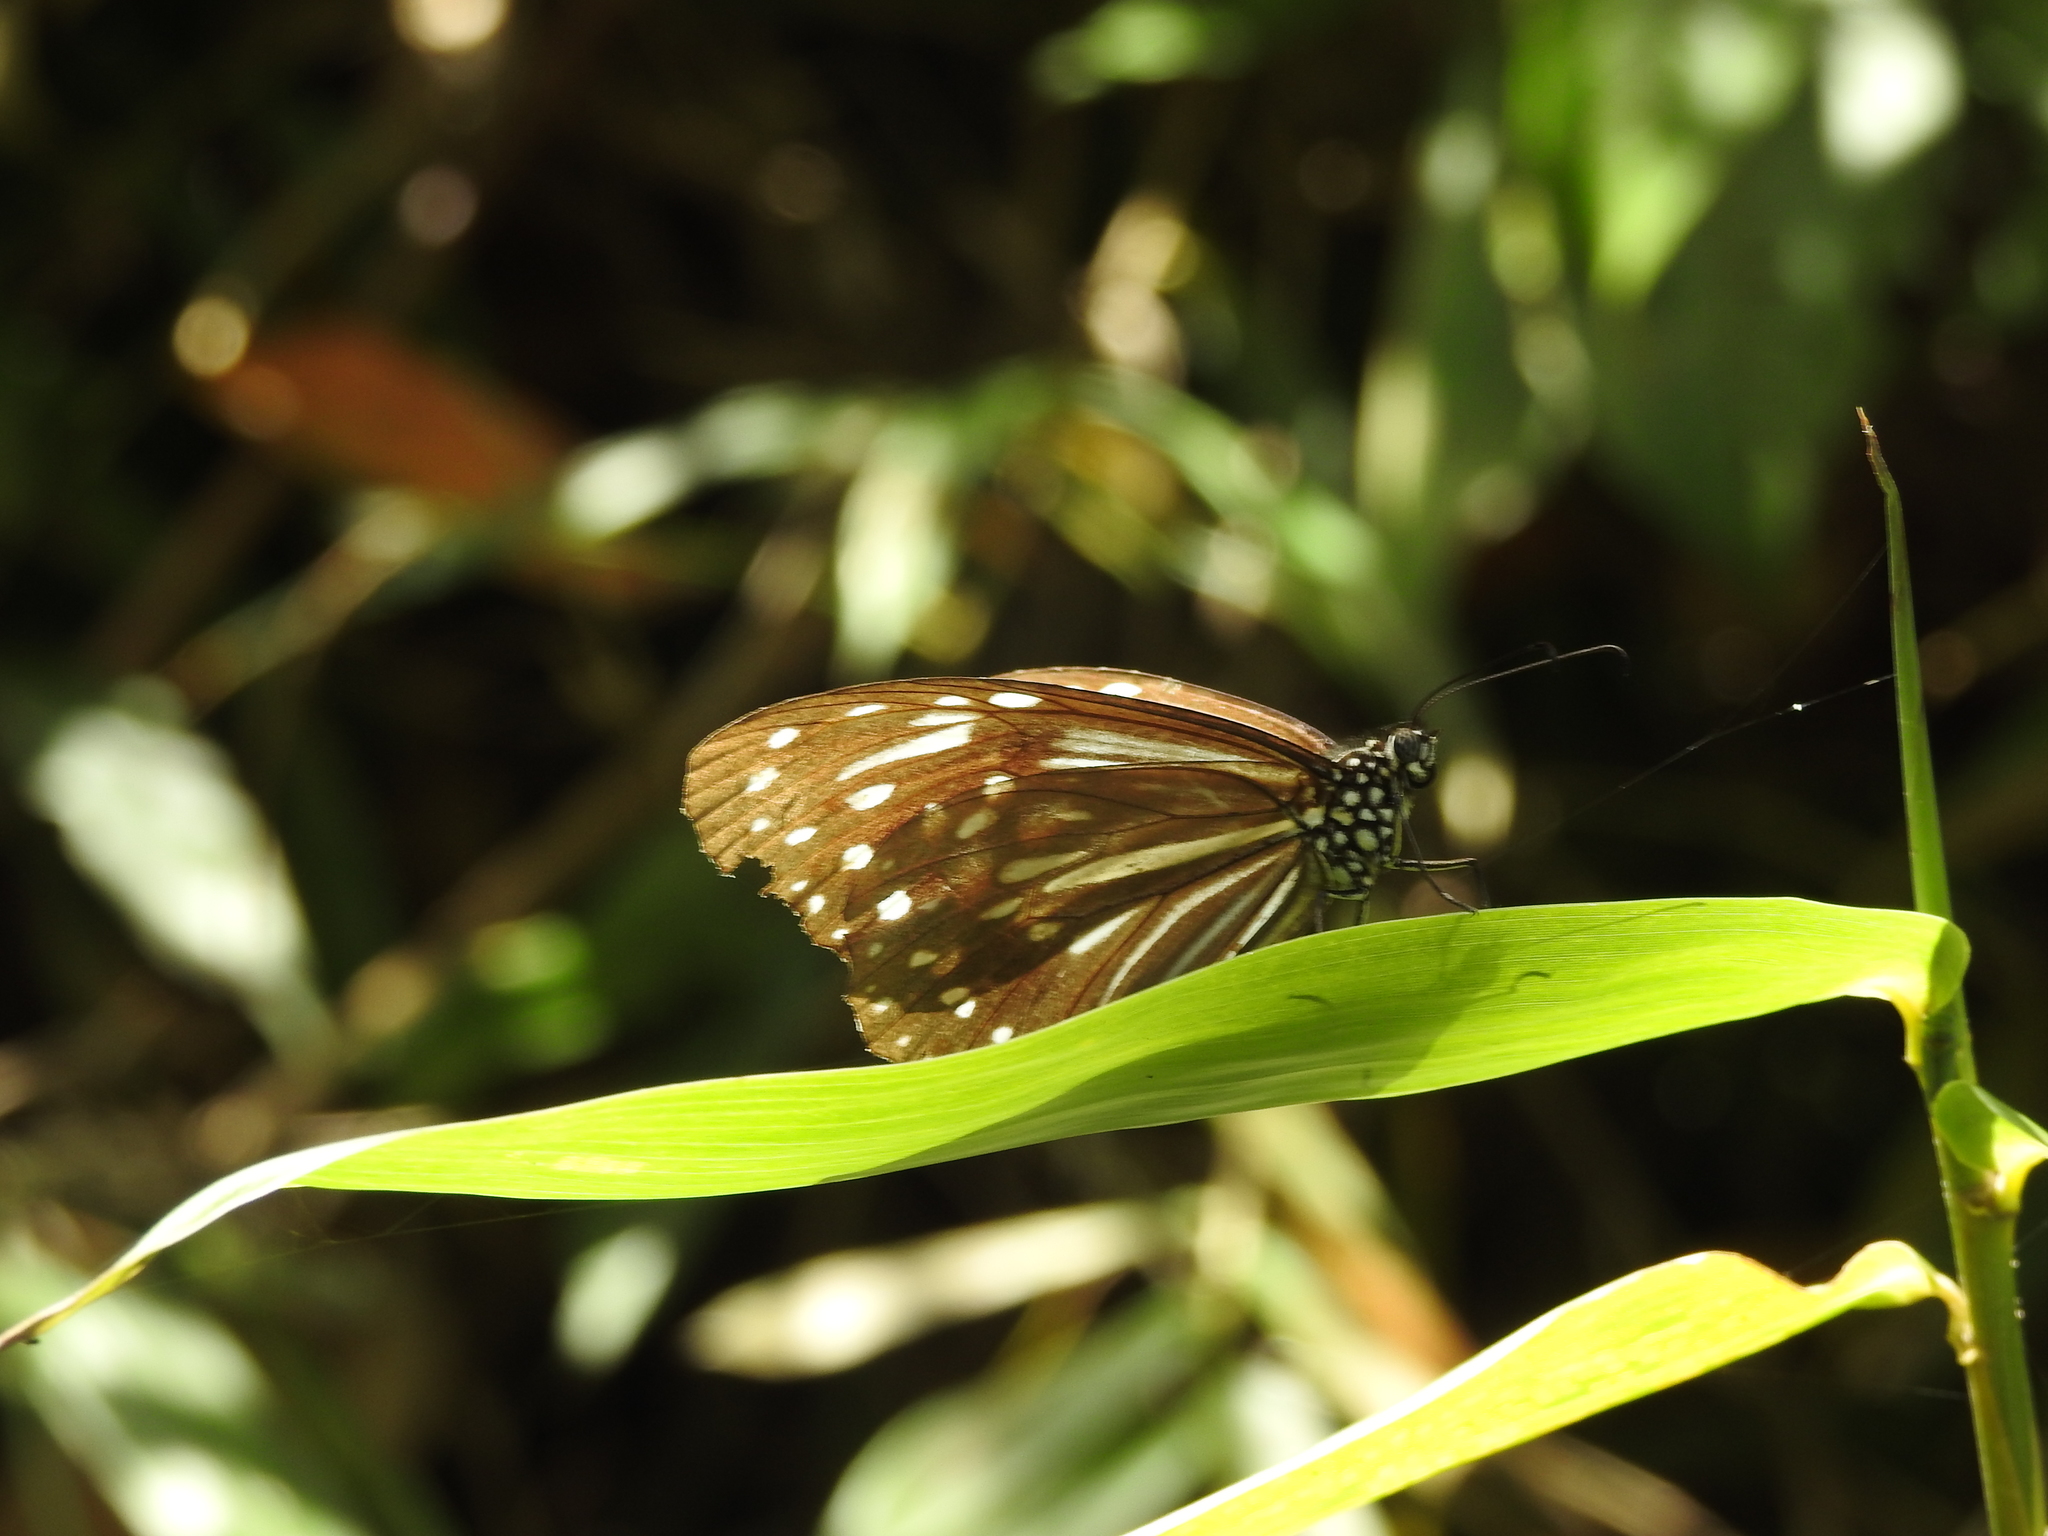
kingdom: Animalia
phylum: Arthropoda
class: Insecta
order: Lepidoptera
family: Nymphalidae
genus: Parantica
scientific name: Parantica nilgiriensis
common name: Nilgiri tiger
